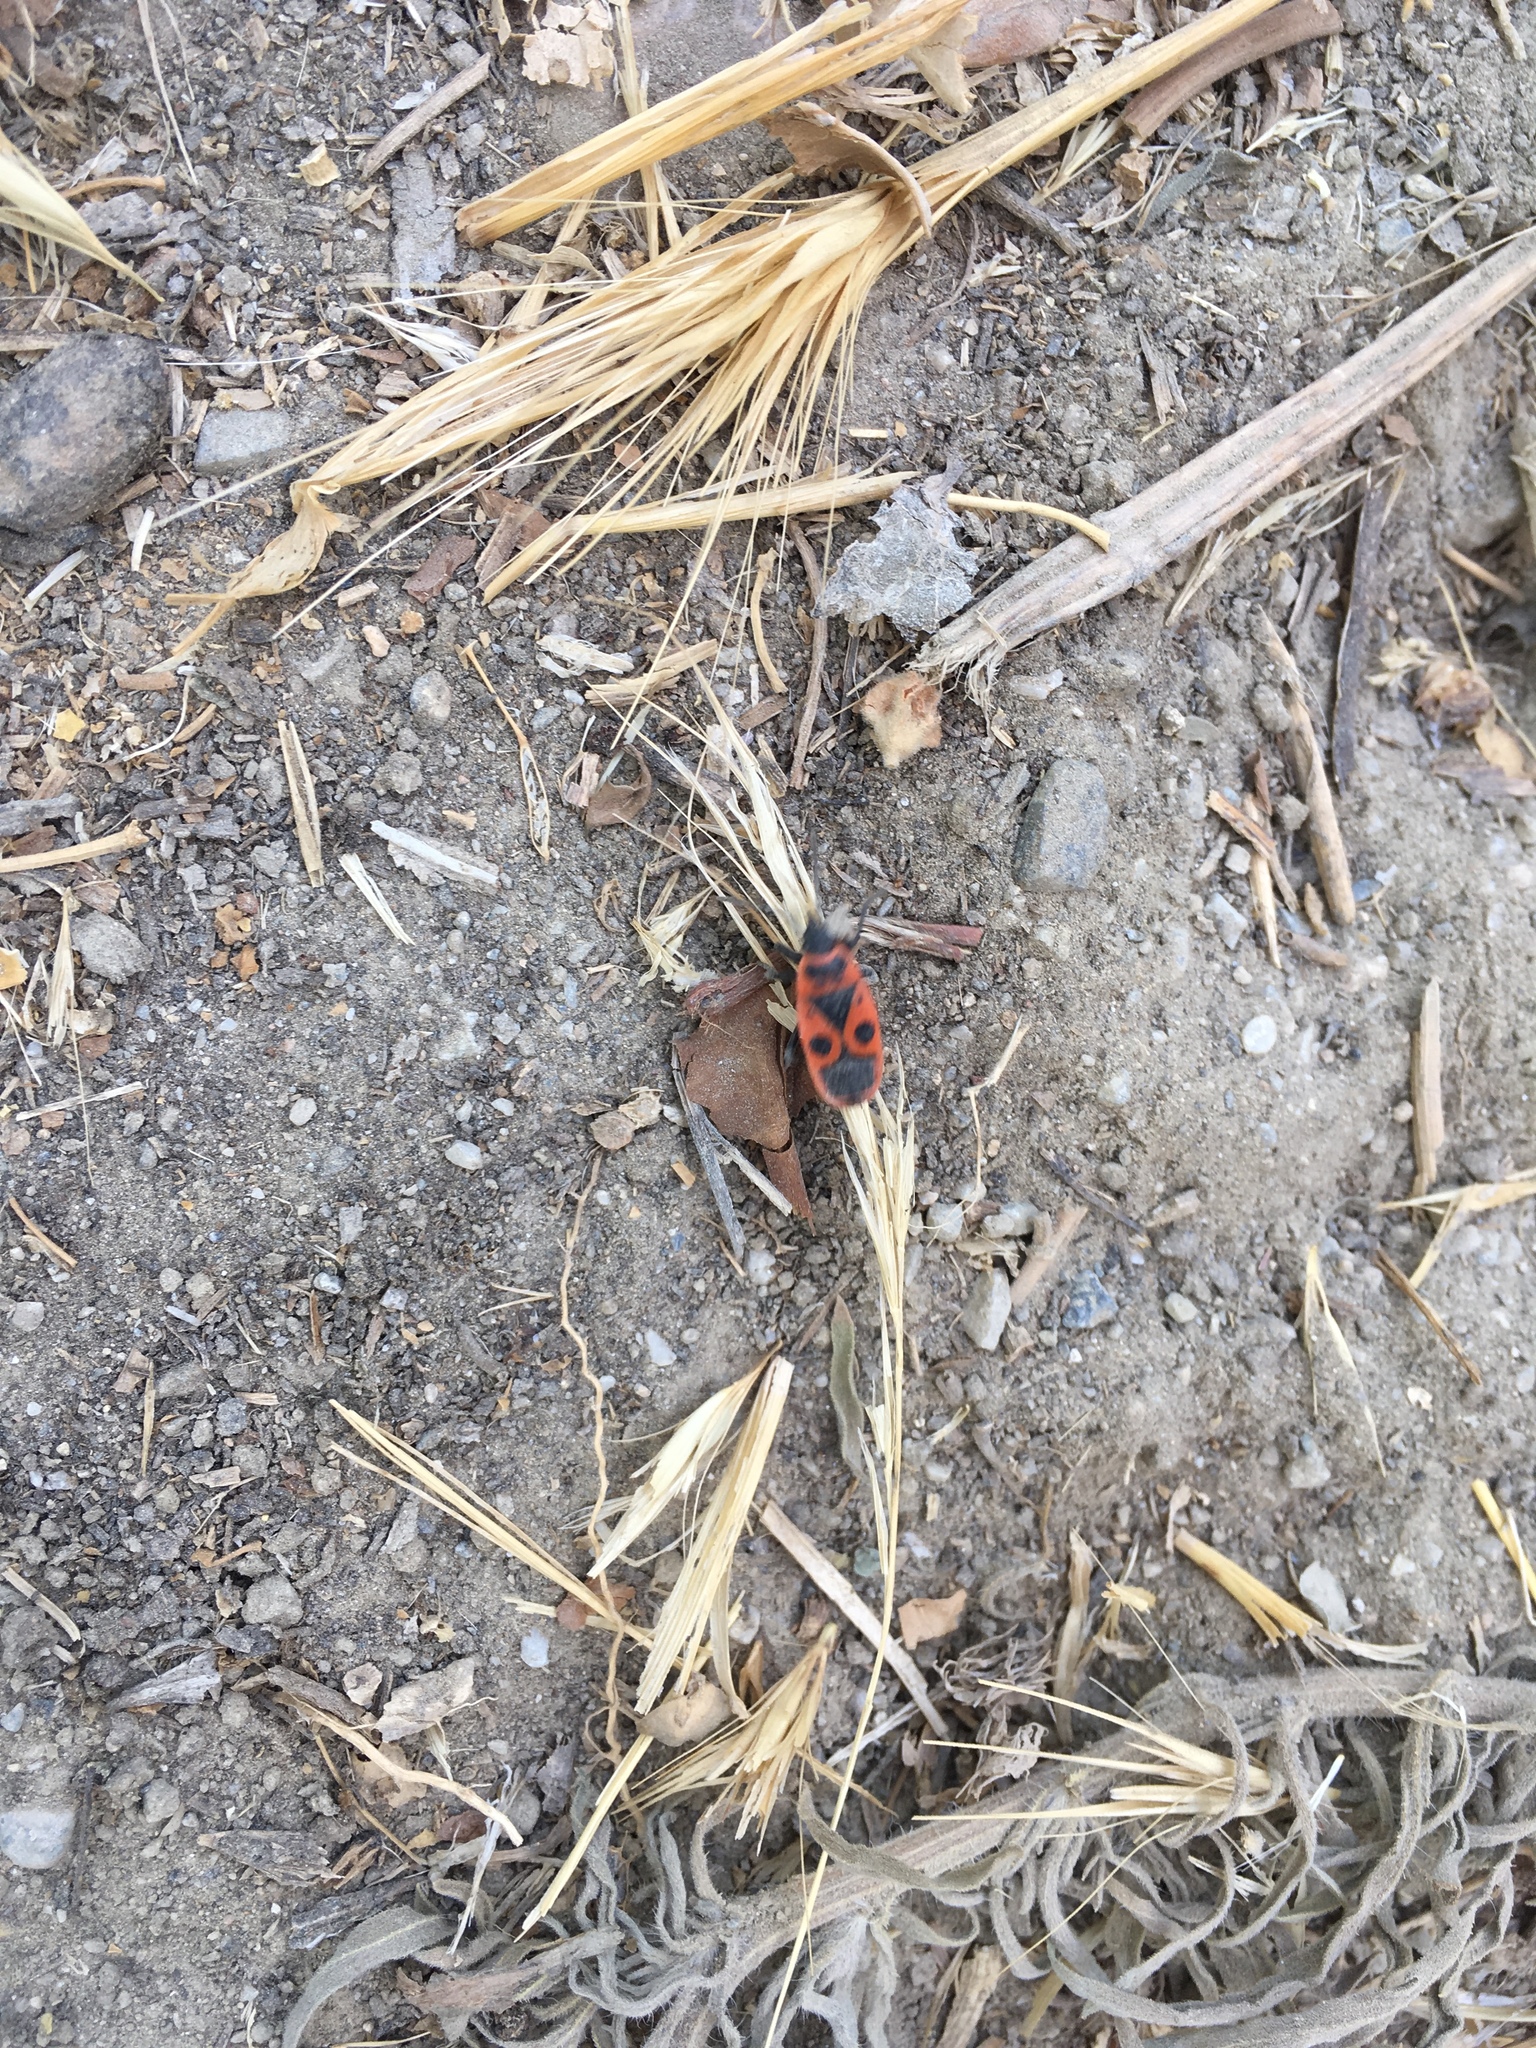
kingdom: Animalia
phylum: Arthropoda
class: Insecta
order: Hemiptera
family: Pyrrhocoridae
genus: Pyrrhocoris
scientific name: Pyrrhocoris apterus
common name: Firebug
